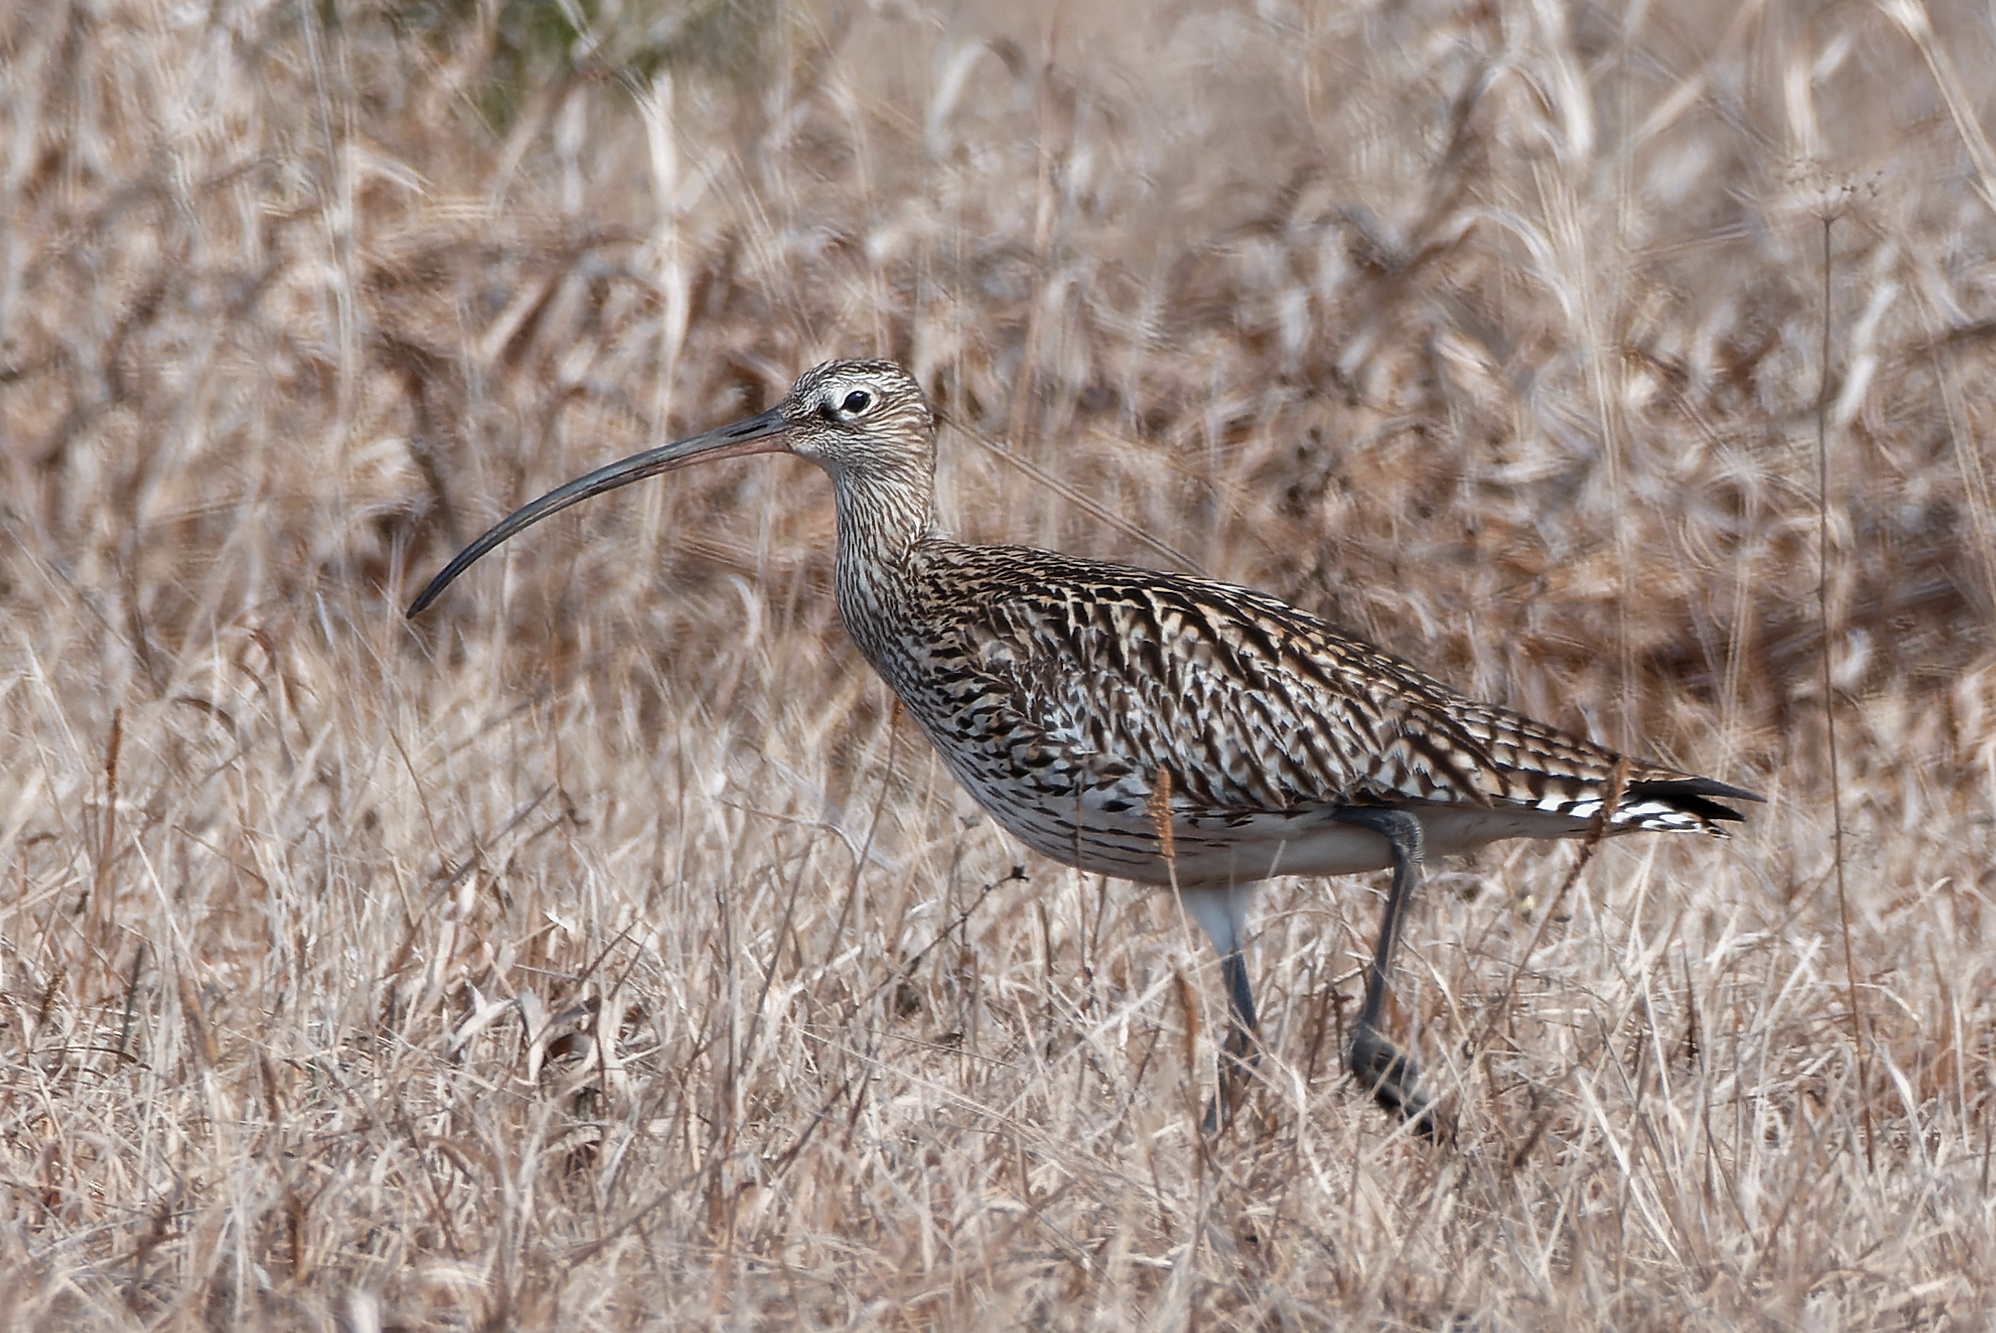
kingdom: Animalia
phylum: Chordata
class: Aves
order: Charadriiformes
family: Scolopacidae
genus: Numenius
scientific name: Numenius arquata
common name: Eurasian curlew
